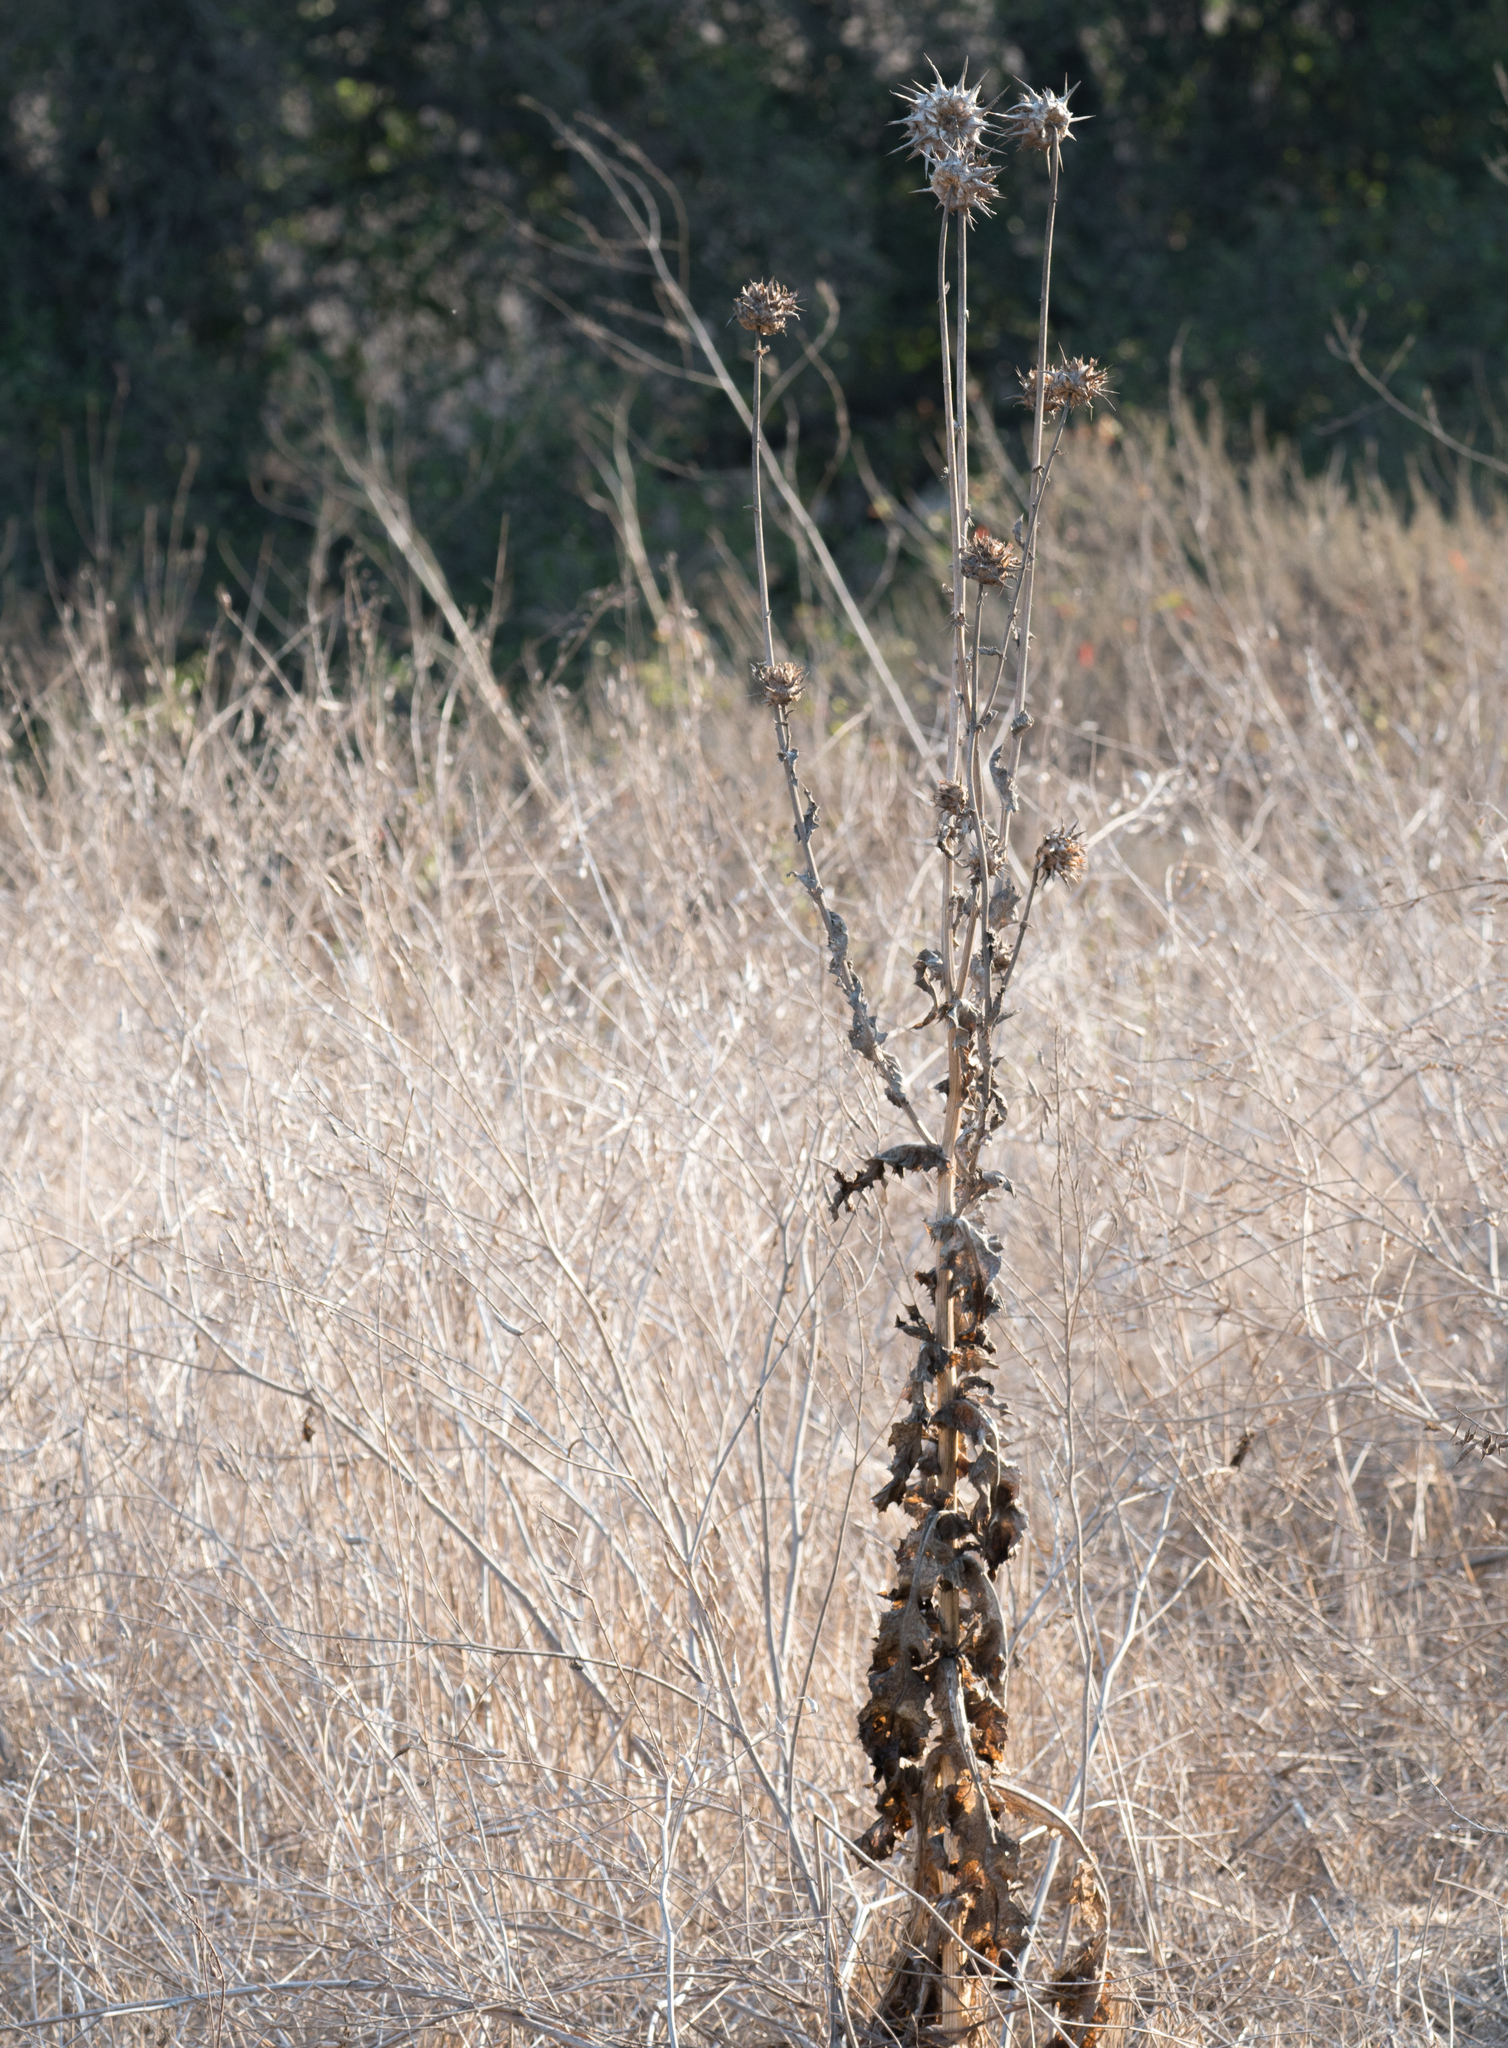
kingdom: Plantae
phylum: Tracheophyta
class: Magnoliopsida
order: Asterales
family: Asteraceae
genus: Silybum
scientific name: Silybum marianum
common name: Milk thistle
